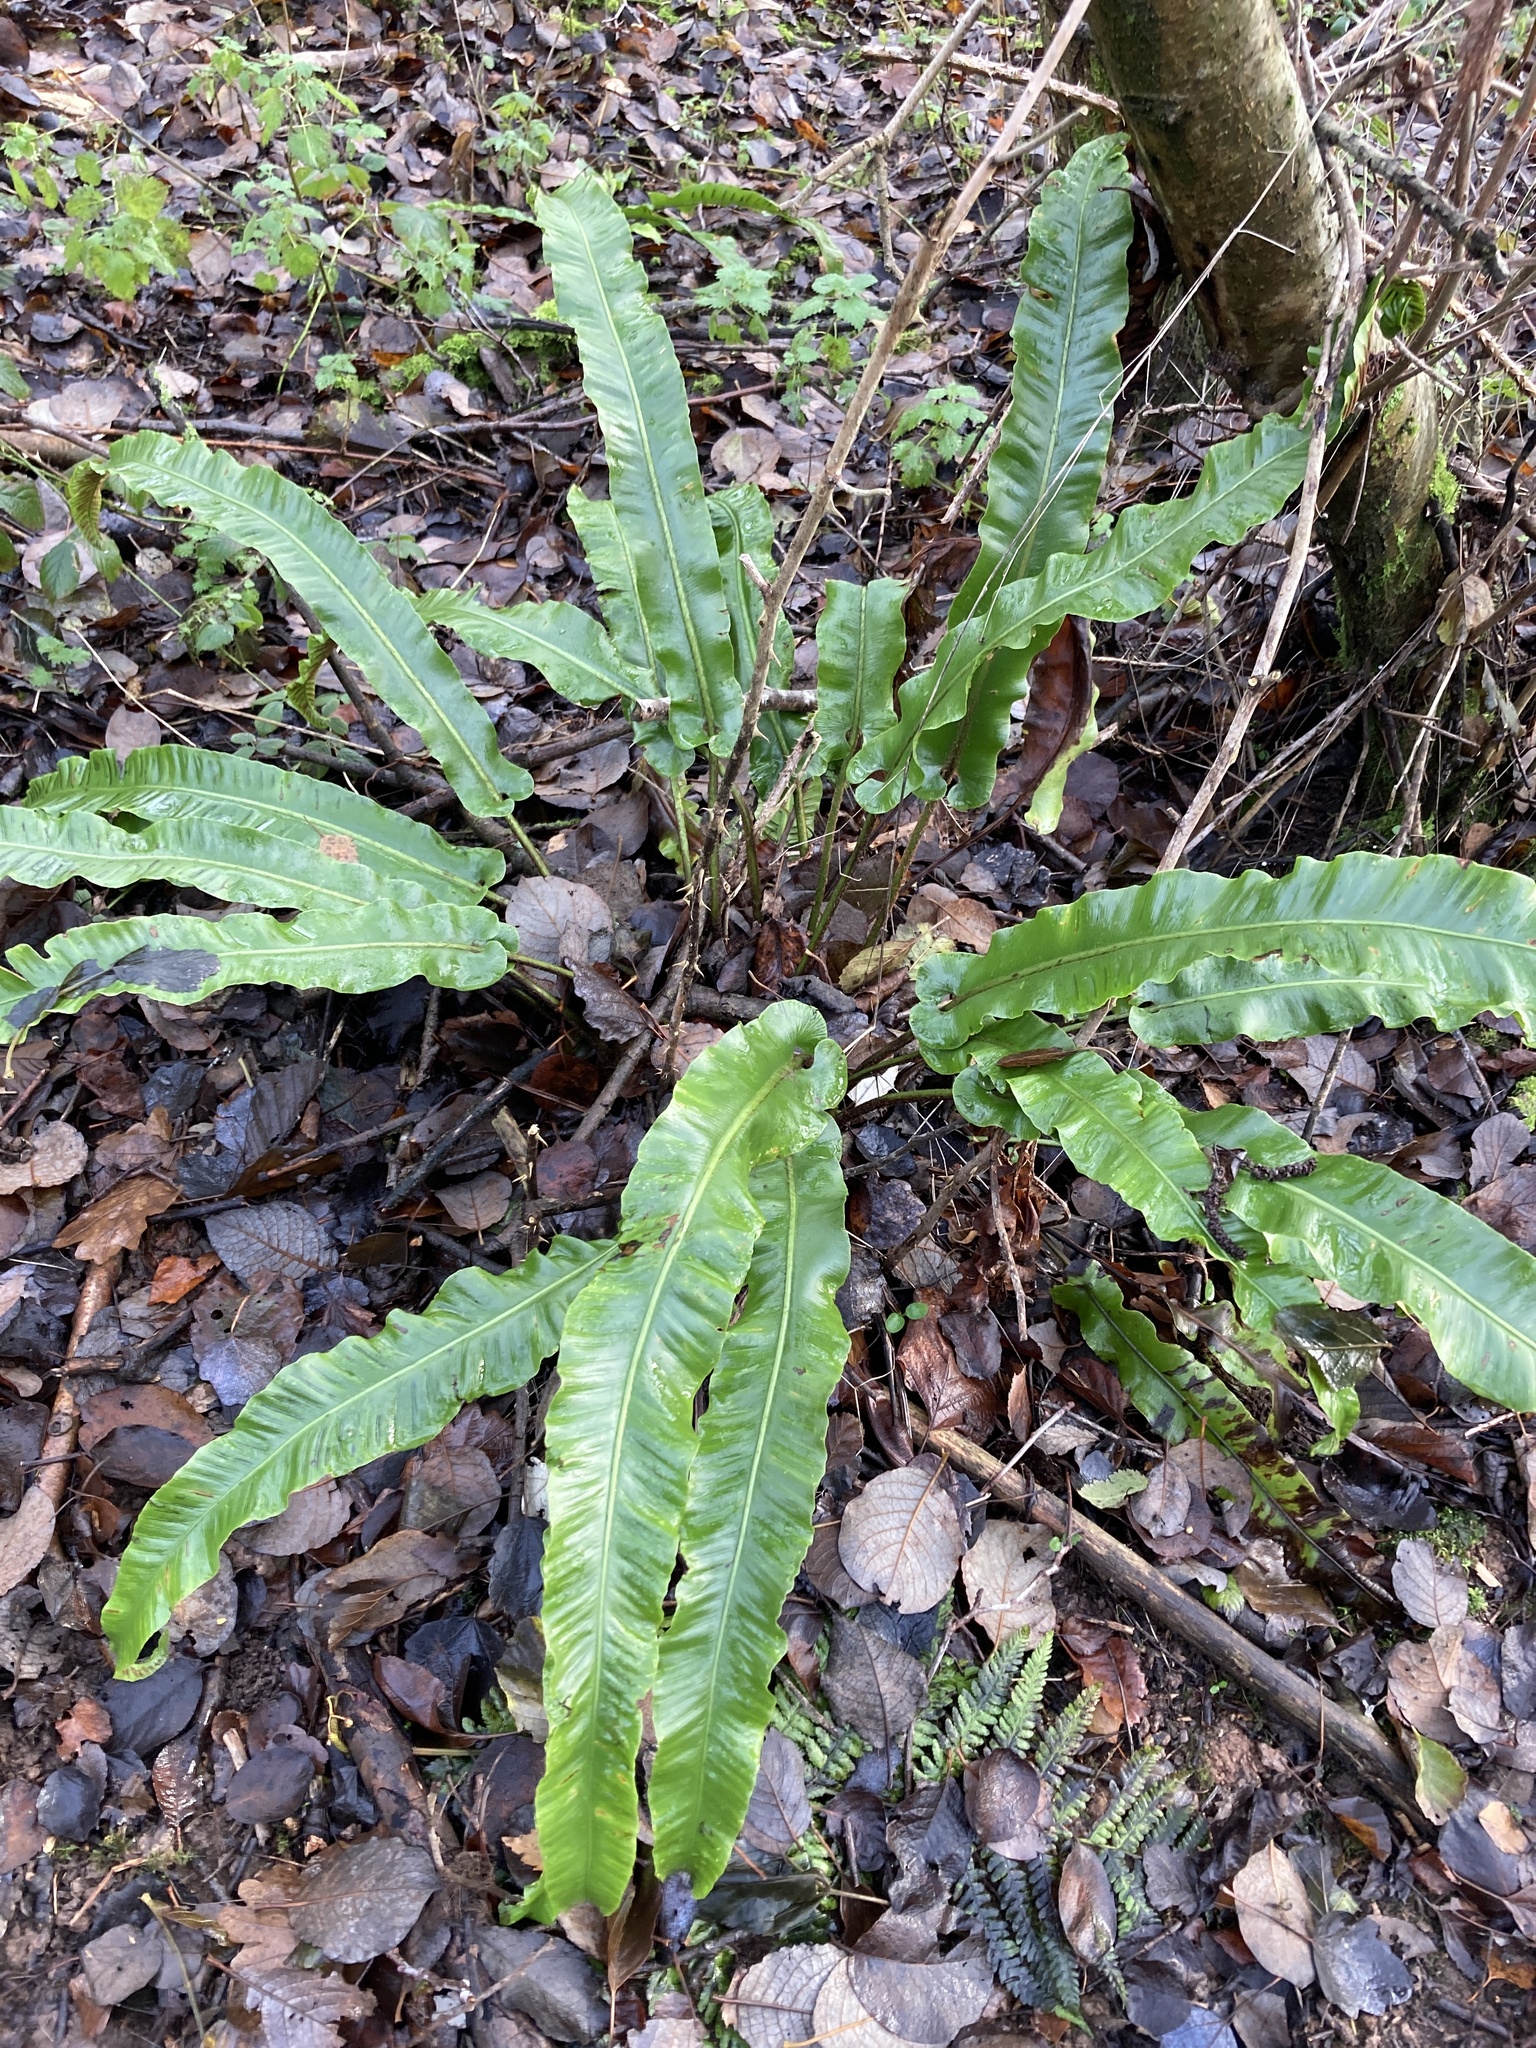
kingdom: Plantae
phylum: Tracheophyta
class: Polypodiopsida
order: Polypodiales
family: Aspleniaceae
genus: Asplenium
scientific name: Asplenium scolopendrium
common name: Hart's-tongue fern
